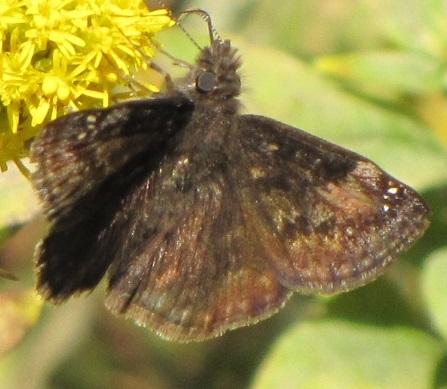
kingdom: Animalia
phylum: Arthropoda
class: Insecta
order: Lepidoptera
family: Hesperiidae
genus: Erynnis
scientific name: Erynnis baptisiae
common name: Wild indigo duskywing
